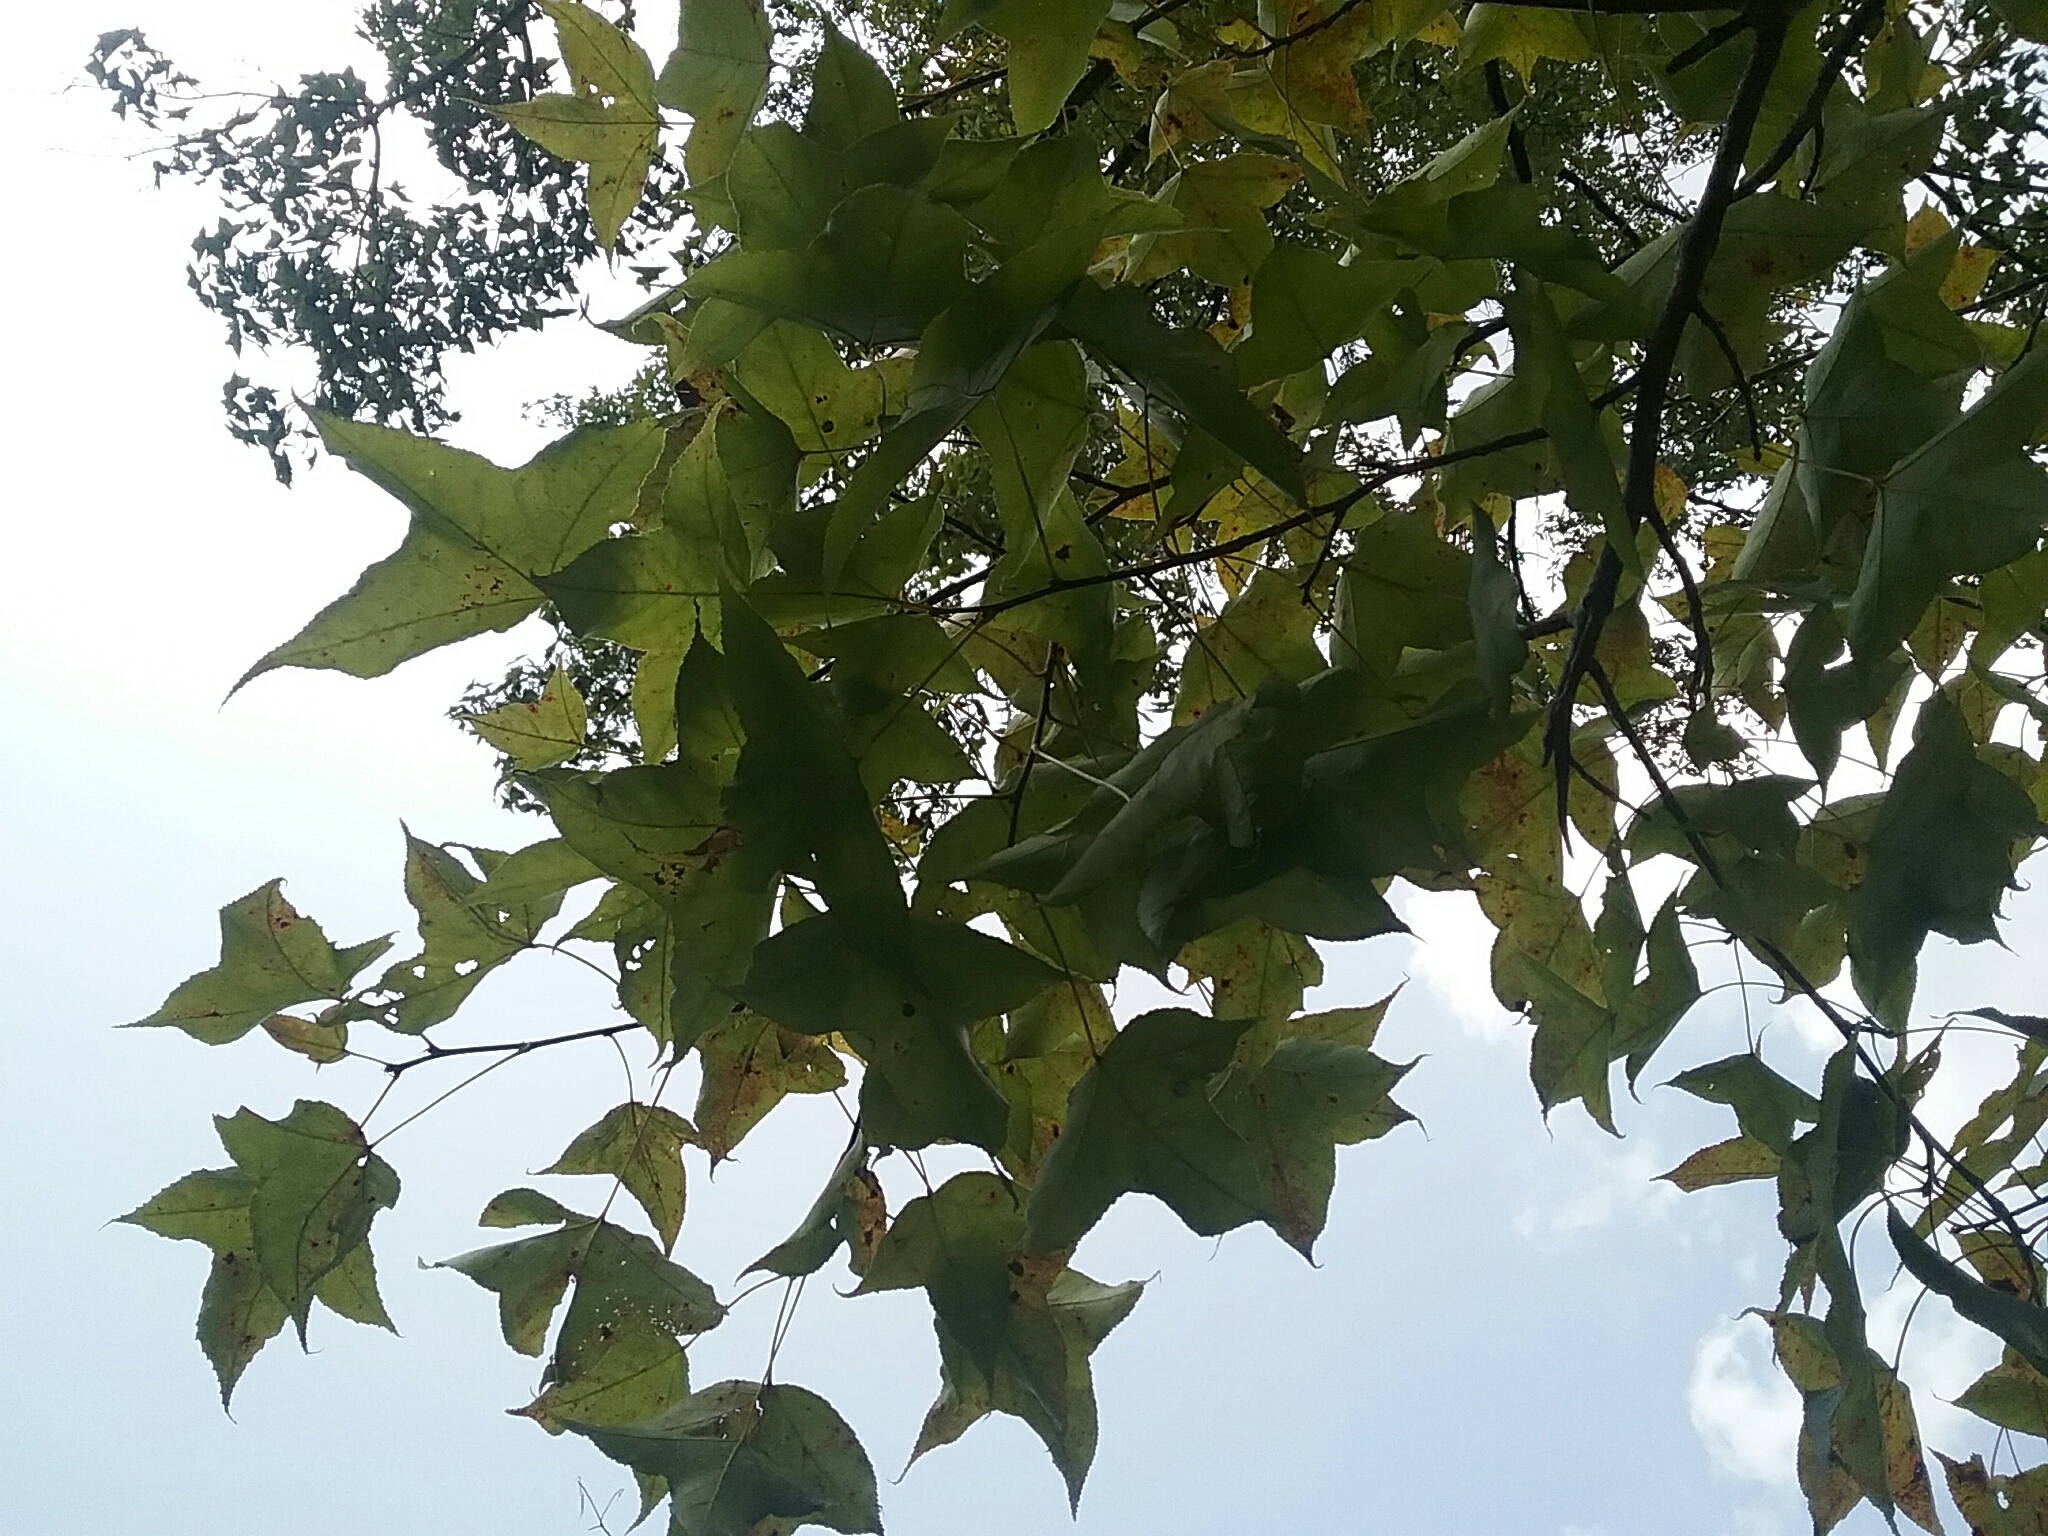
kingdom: Plantae
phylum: Tracheophyta
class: Magnoliopsida
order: Saxifragales
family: Altingiaceae
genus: Liquidambar
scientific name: Liquidambar formosana
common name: Chinese sweet gum
